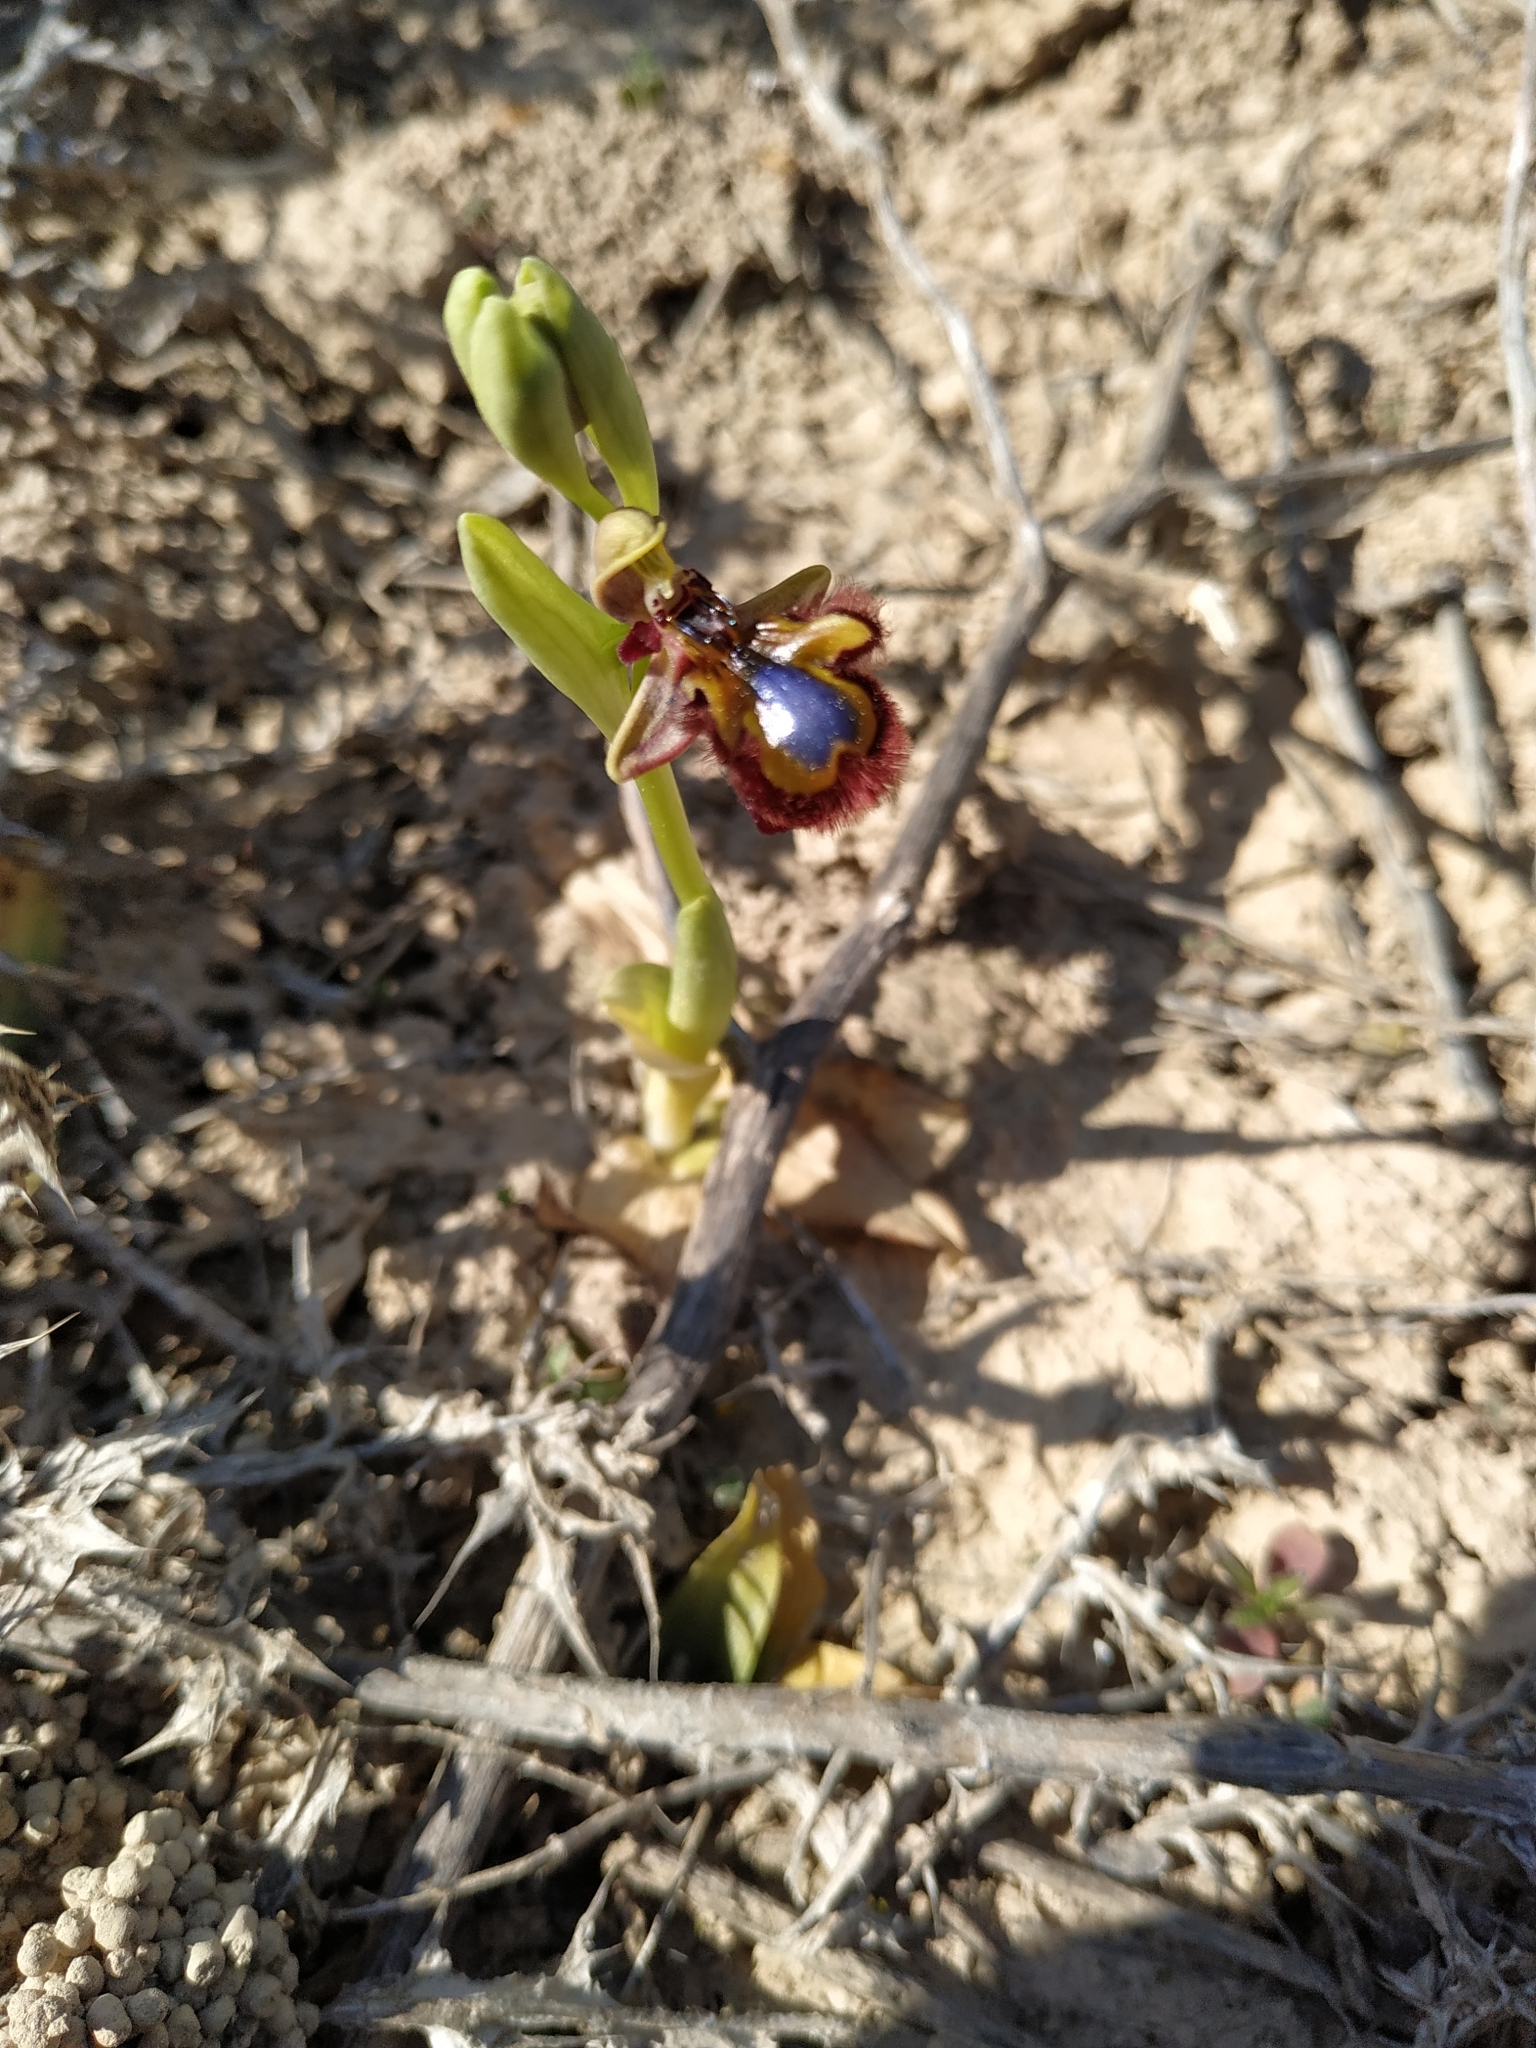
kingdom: Plantae
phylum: Tracheophyta
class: Liliopsida
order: Asparagales
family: Orchidaceae
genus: Ophrys
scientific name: Ophrys speculum
